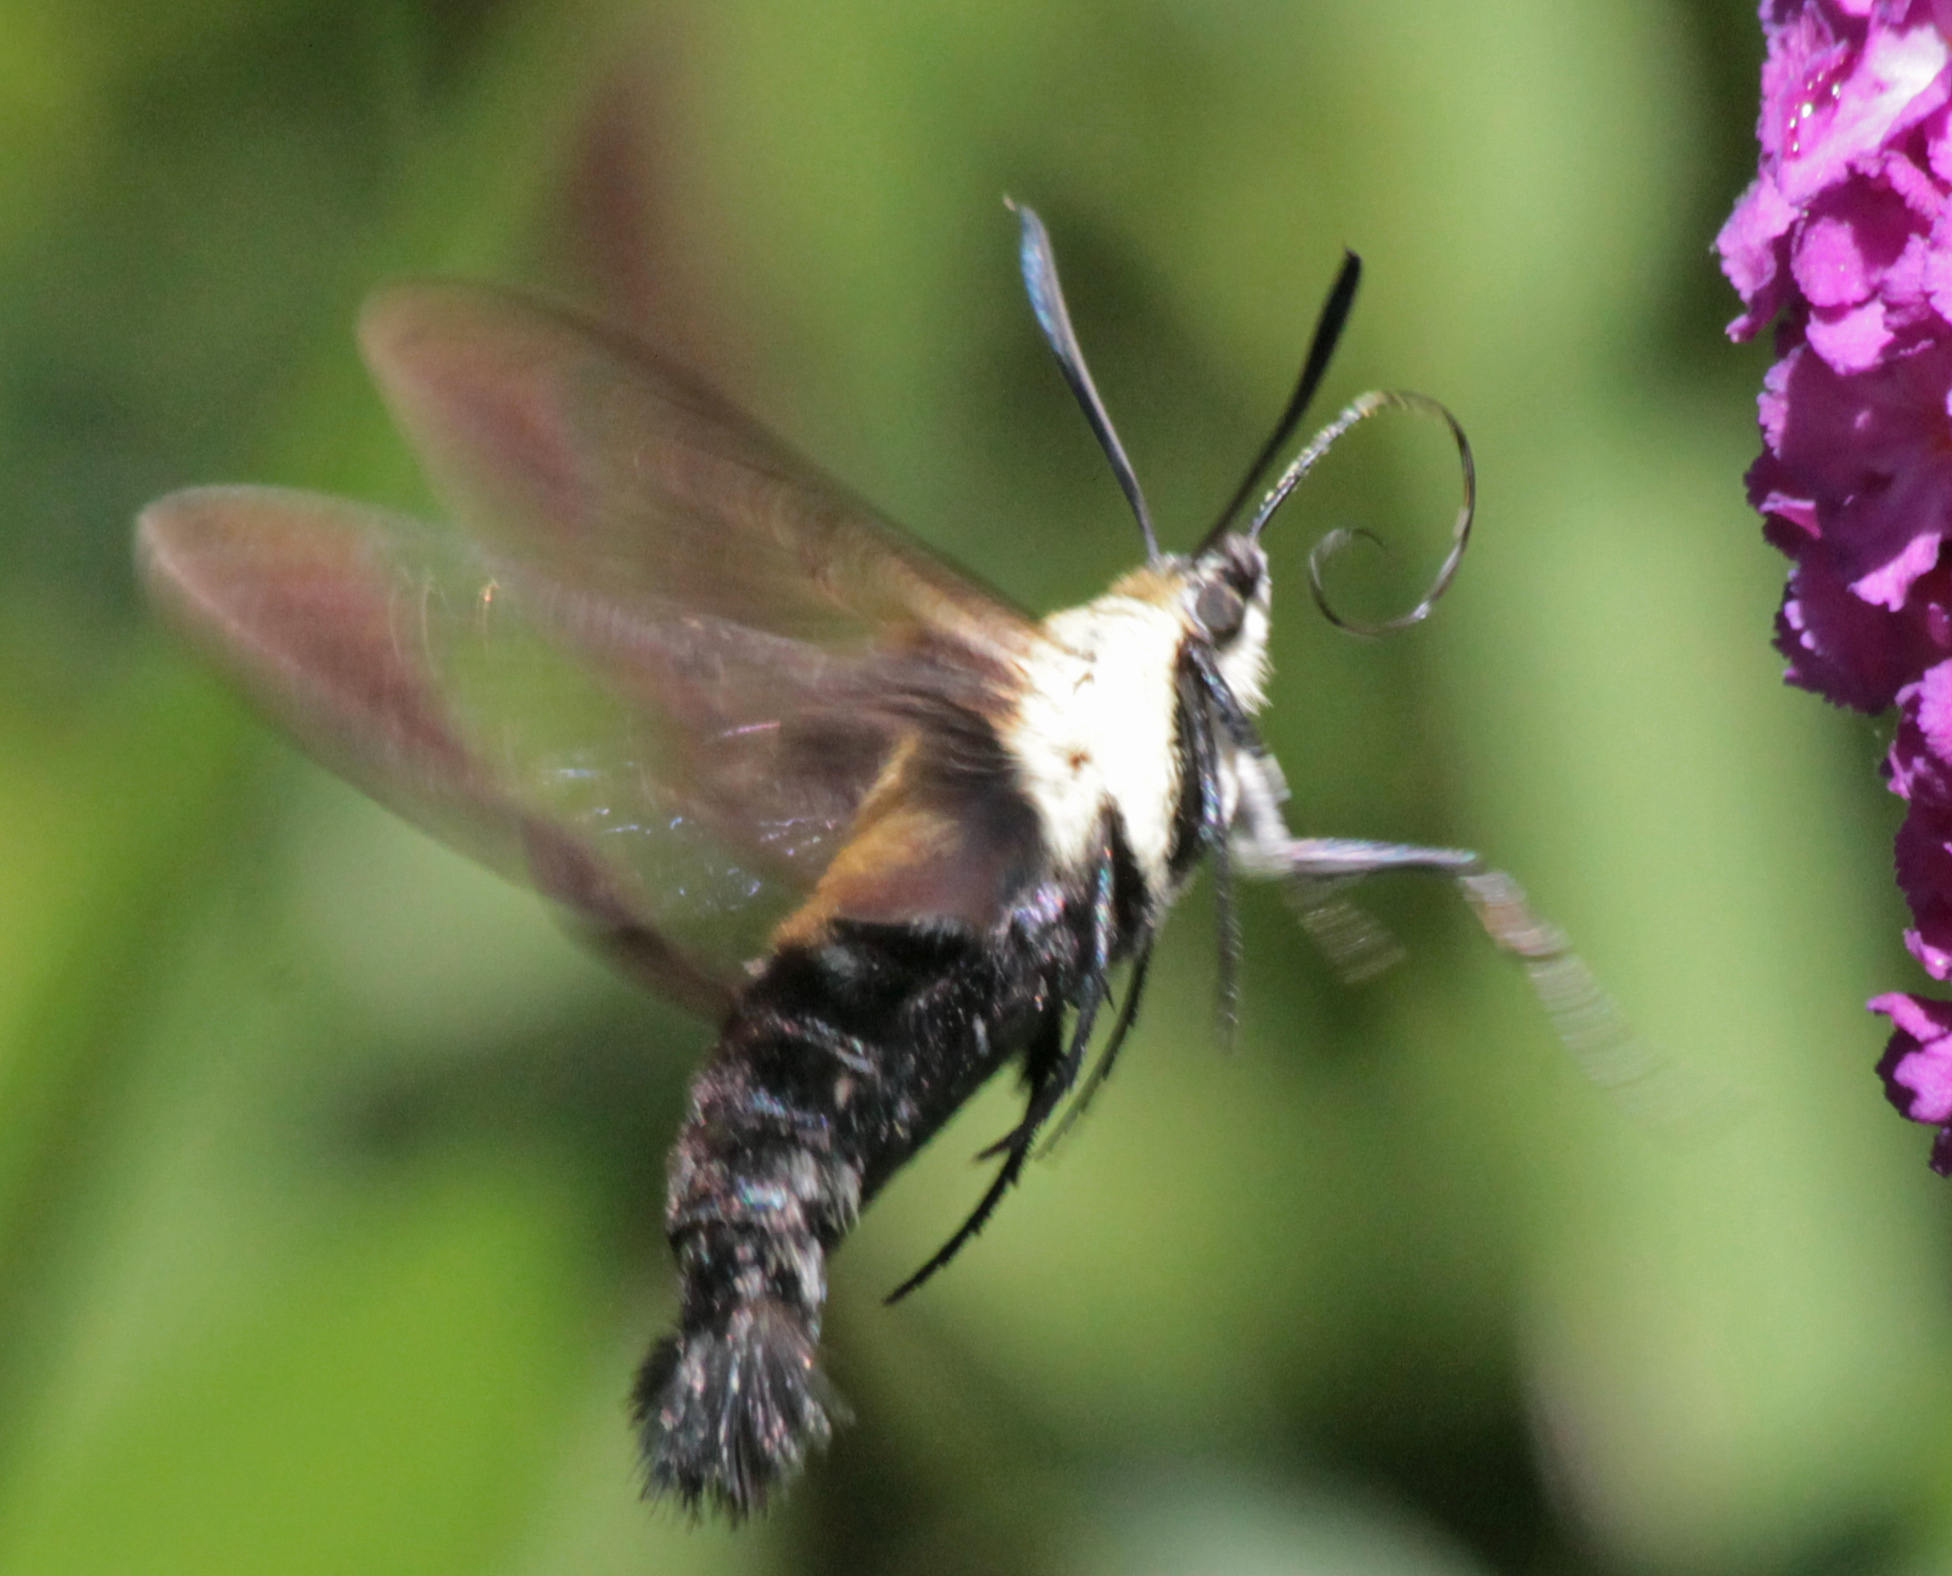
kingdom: Animalia
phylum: Arthropoda
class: Insecta
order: Lepidoptera
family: Sphingidae
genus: Hemaris
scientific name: Hemaris diffinis
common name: Bumblebee moth
